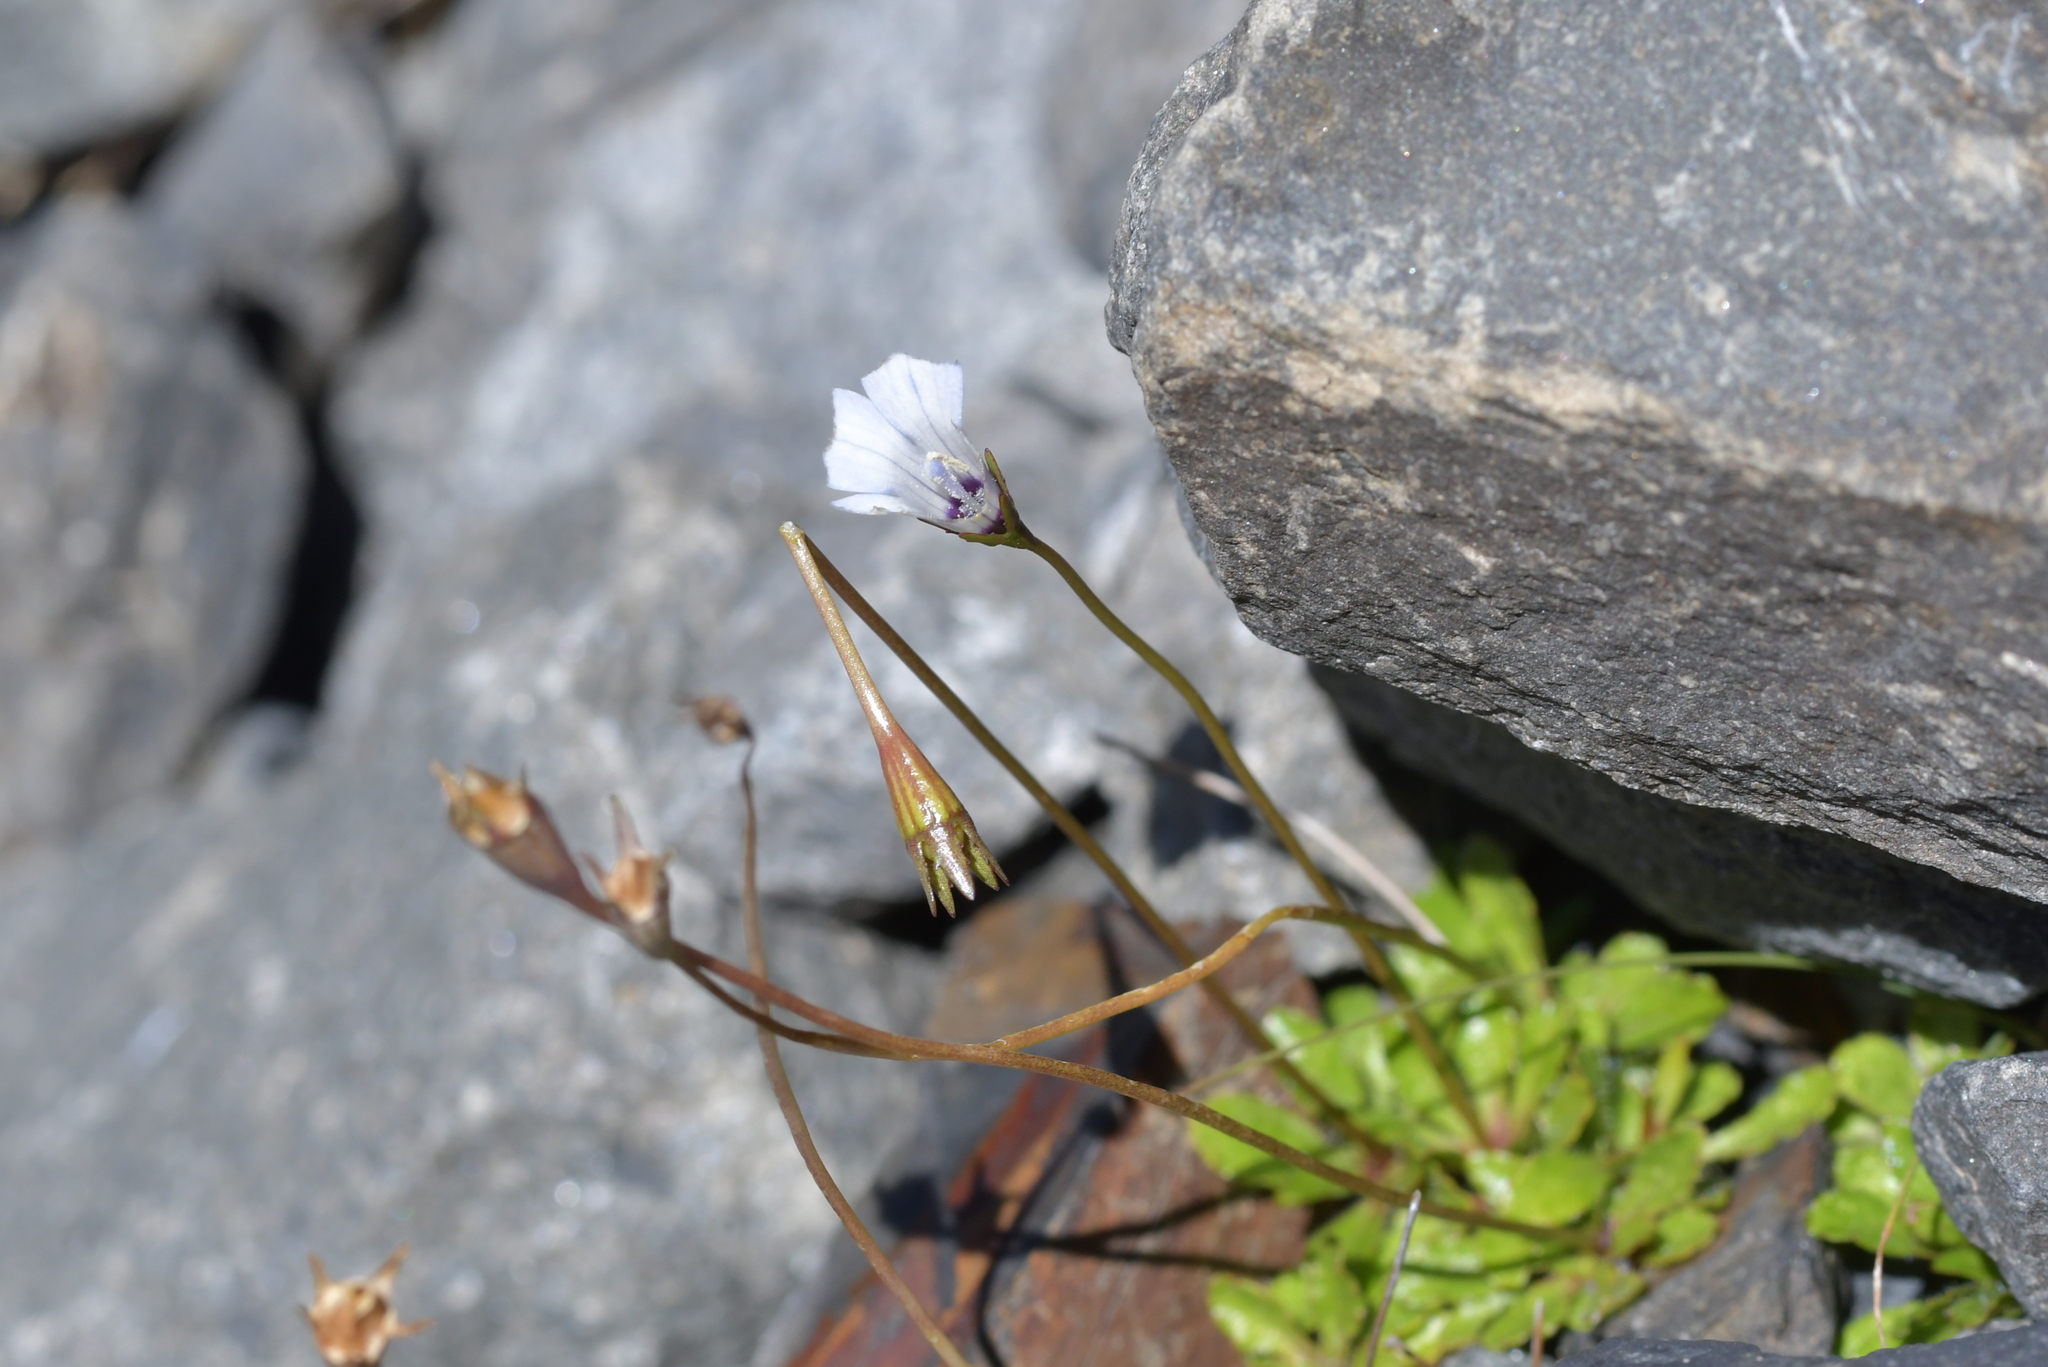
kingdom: Plantae
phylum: Tracheophyta
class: Magnoliopsida
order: Asterales
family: Campanulaceae
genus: Wahlenbergia
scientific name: Wahlenbergia albomarginata
